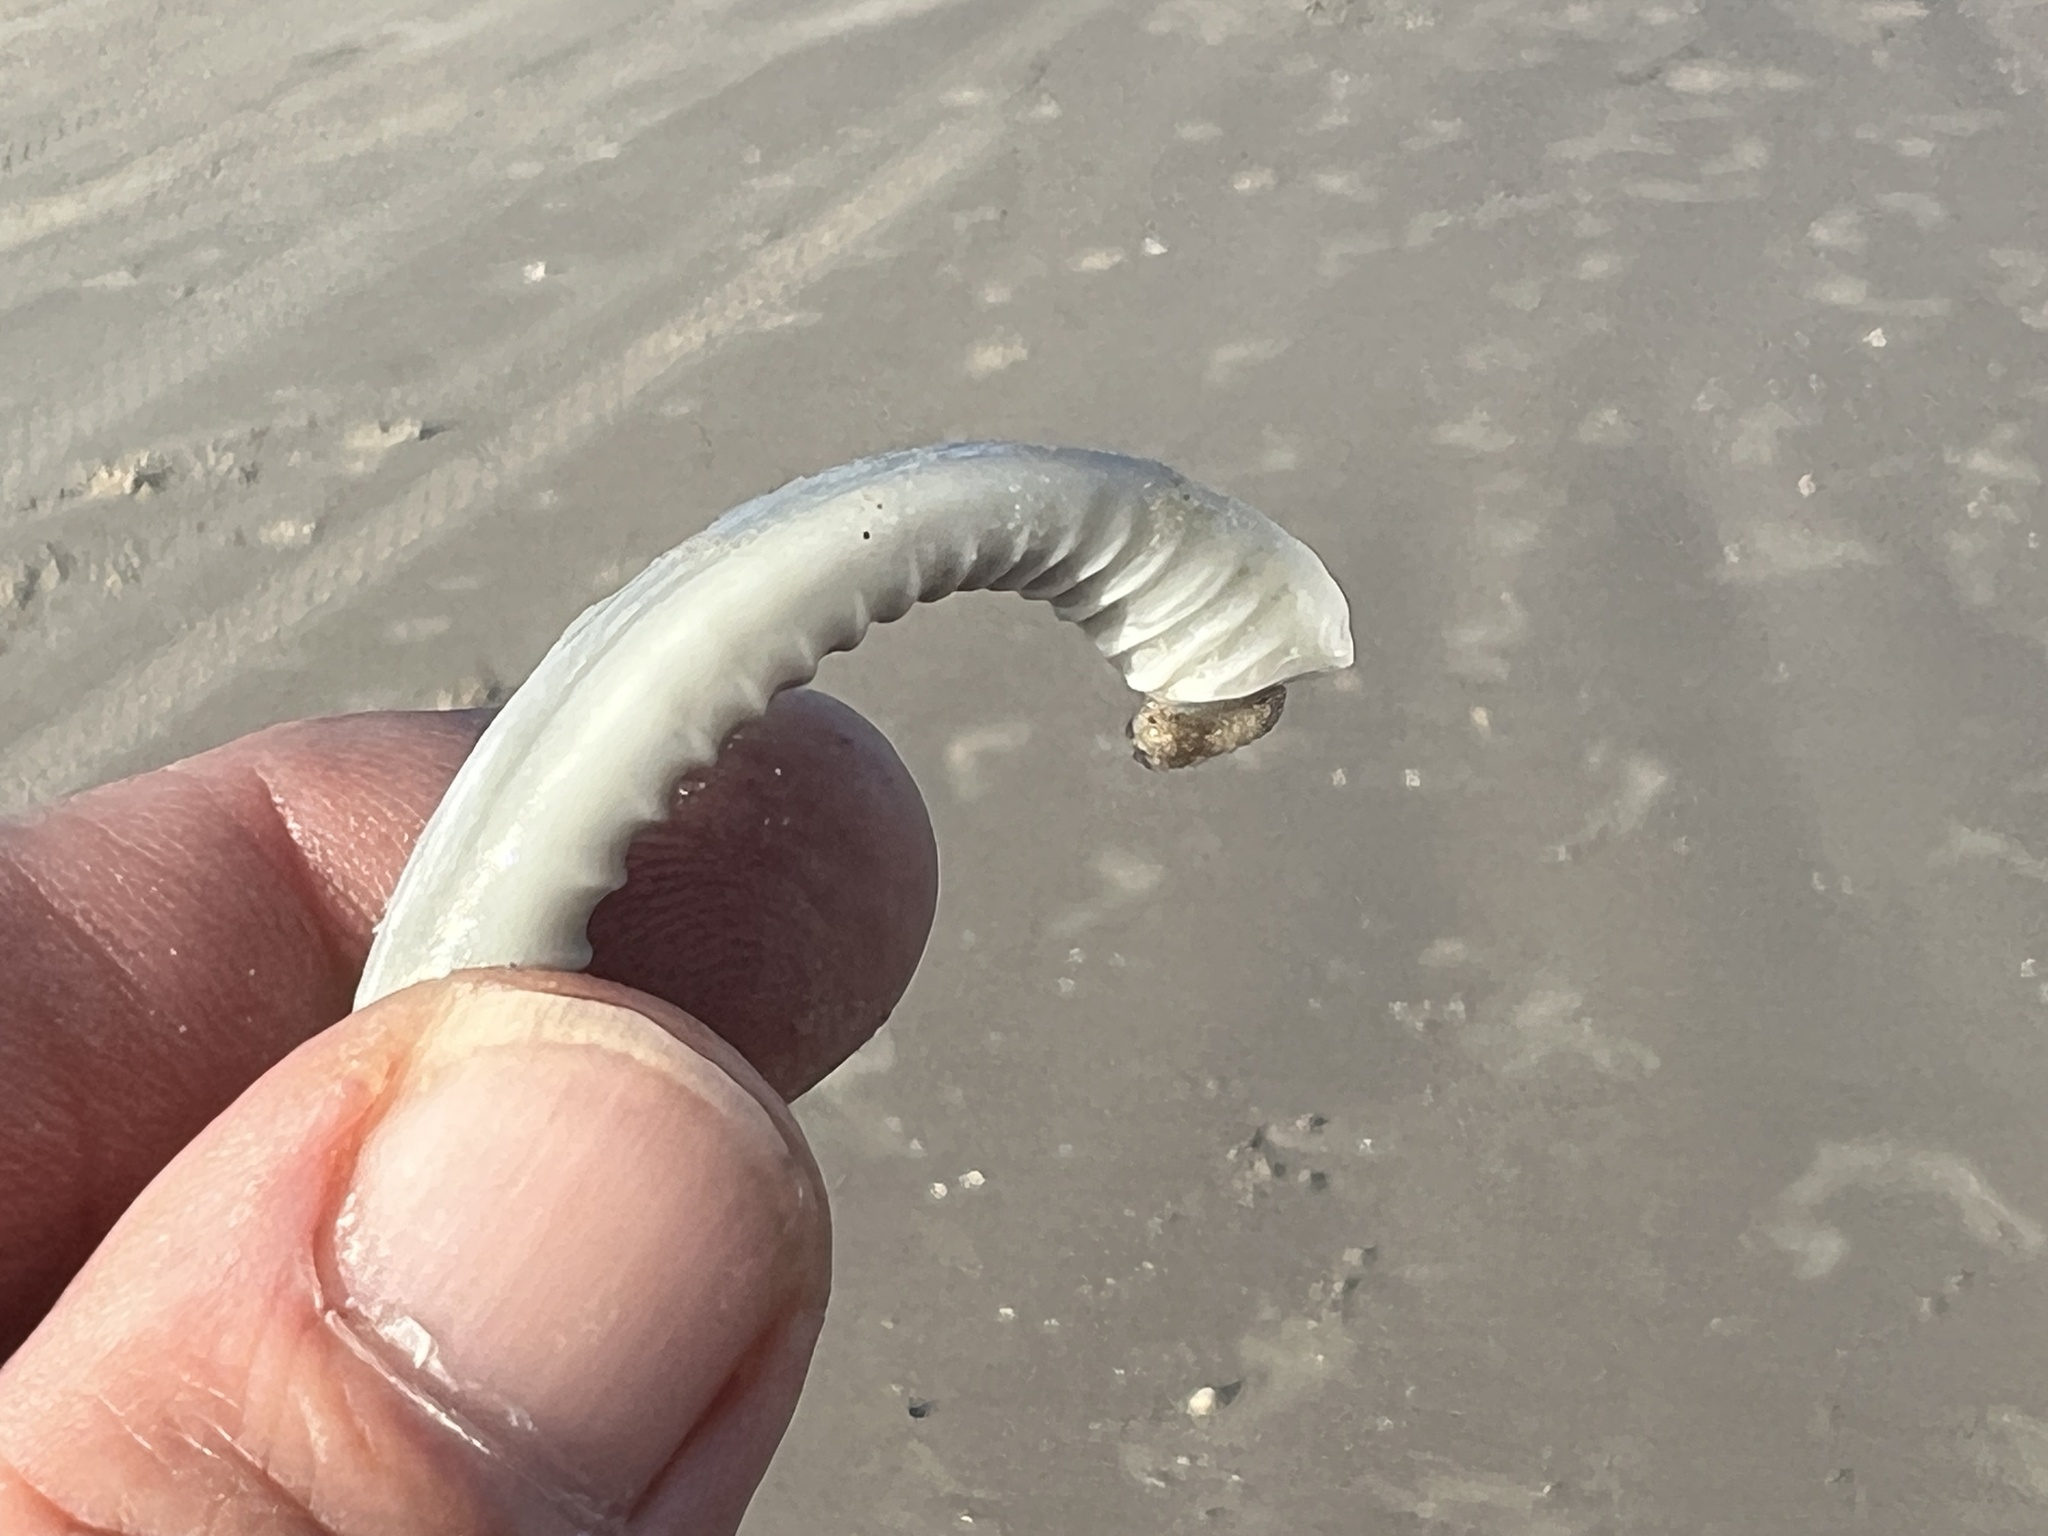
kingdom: Animalia
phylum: Mollusca
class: Gastropoda
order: Littorinimorpha
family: Cassidae
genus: Semicassis
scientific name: Semicassis granulata
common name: Scotch bonnet
